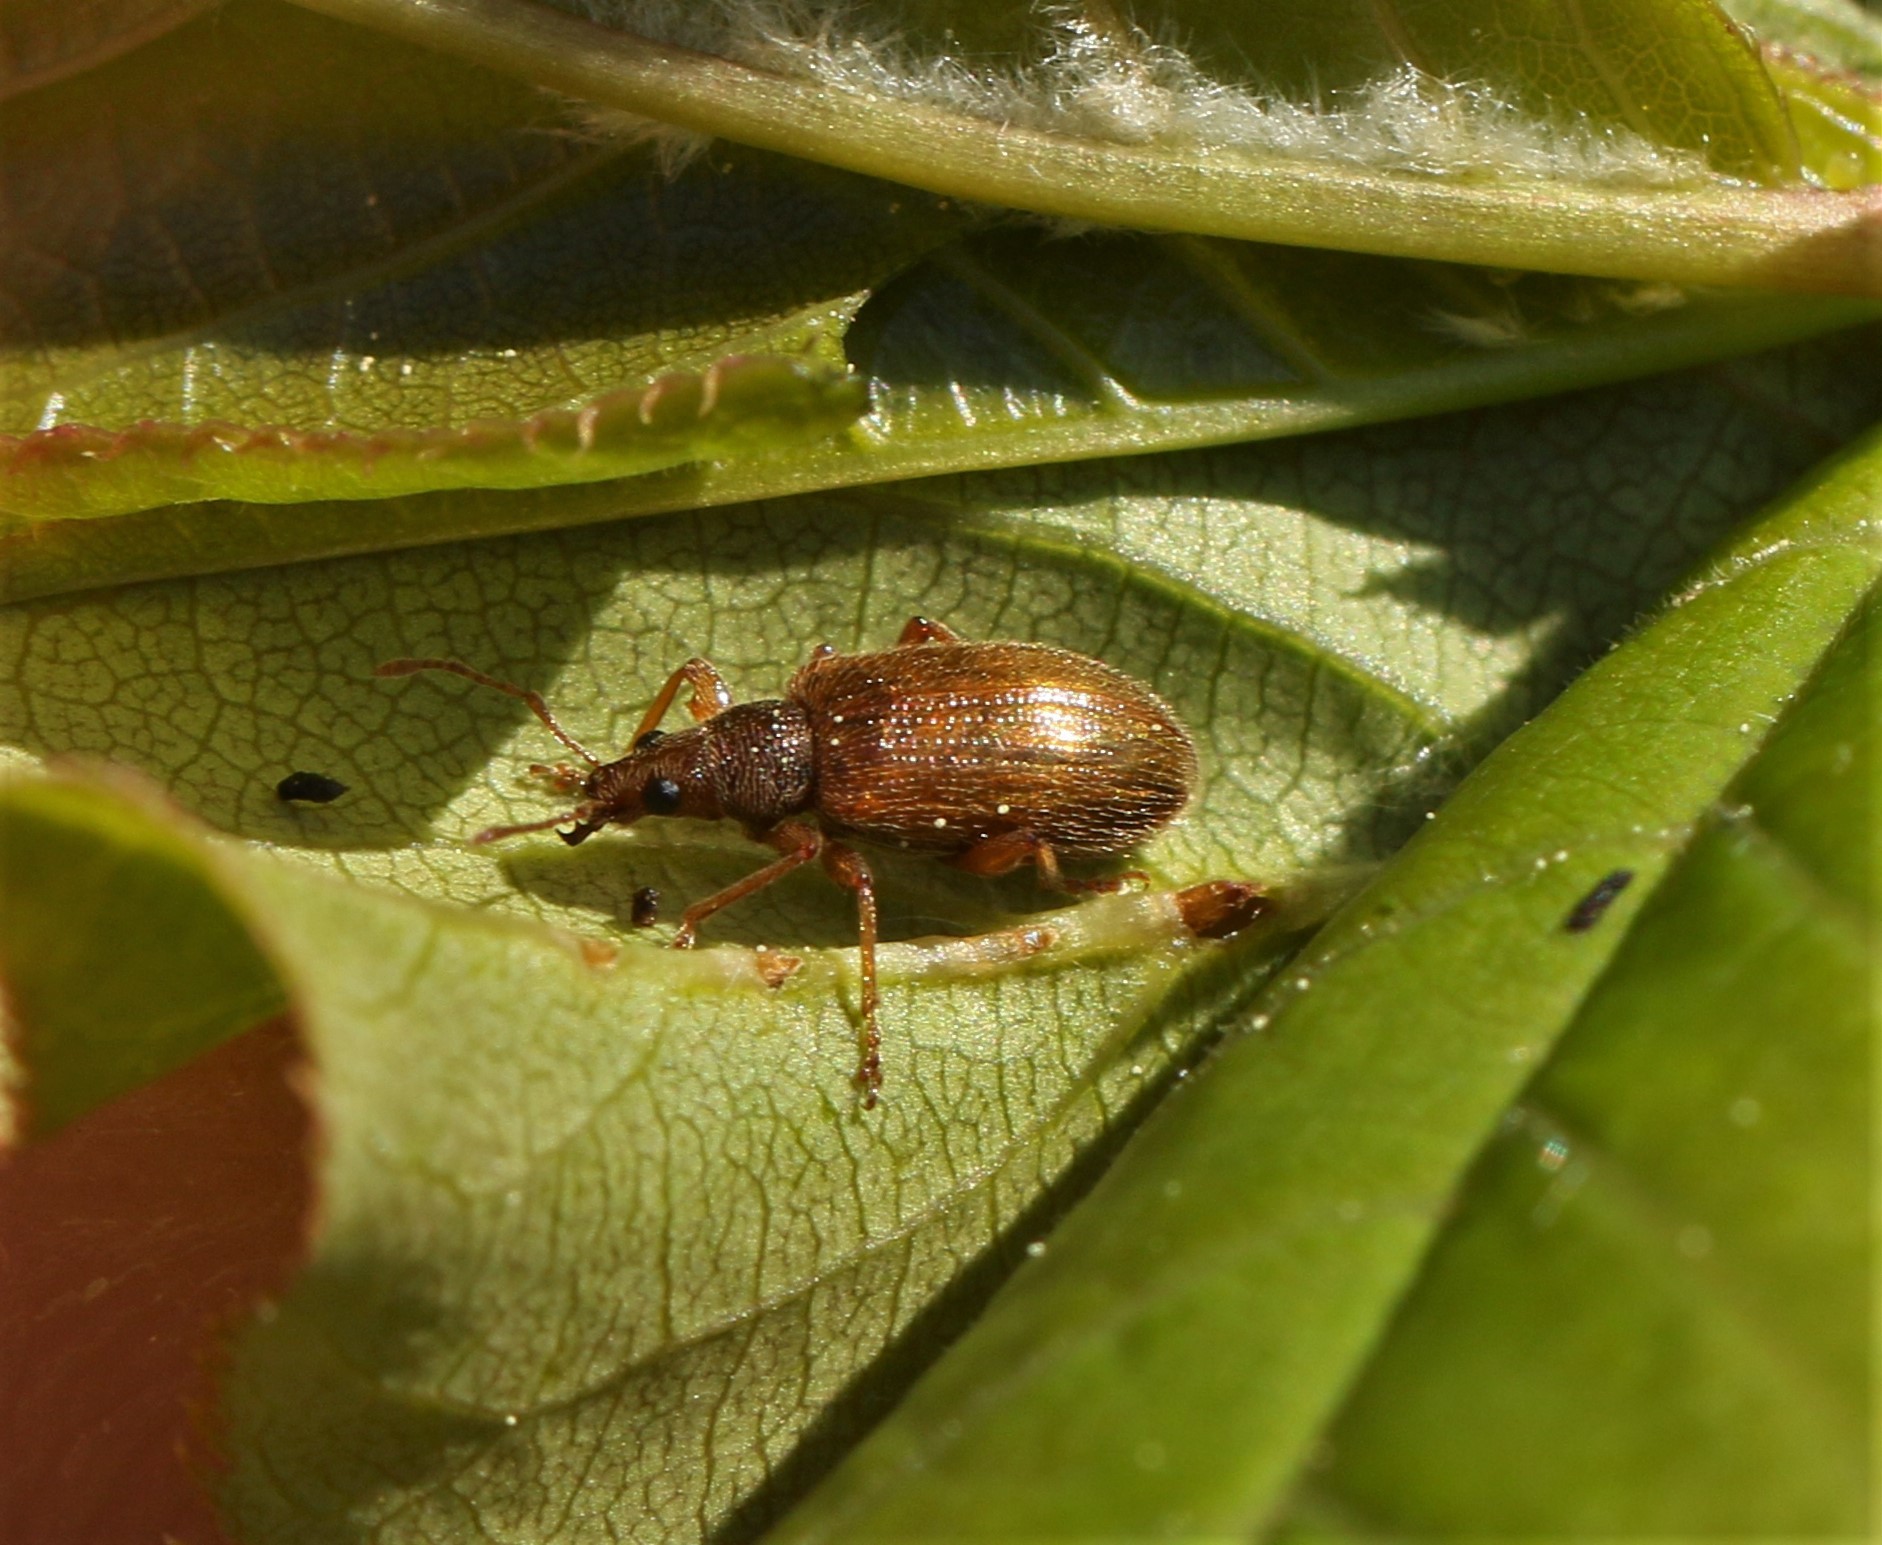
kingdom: Animalia
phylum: Arthropoda
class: Insecta
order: Coleoptera
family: Curculionidae
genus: Phyllobius
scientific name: Phyllobius oblongus
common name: Brown leaf weevil
